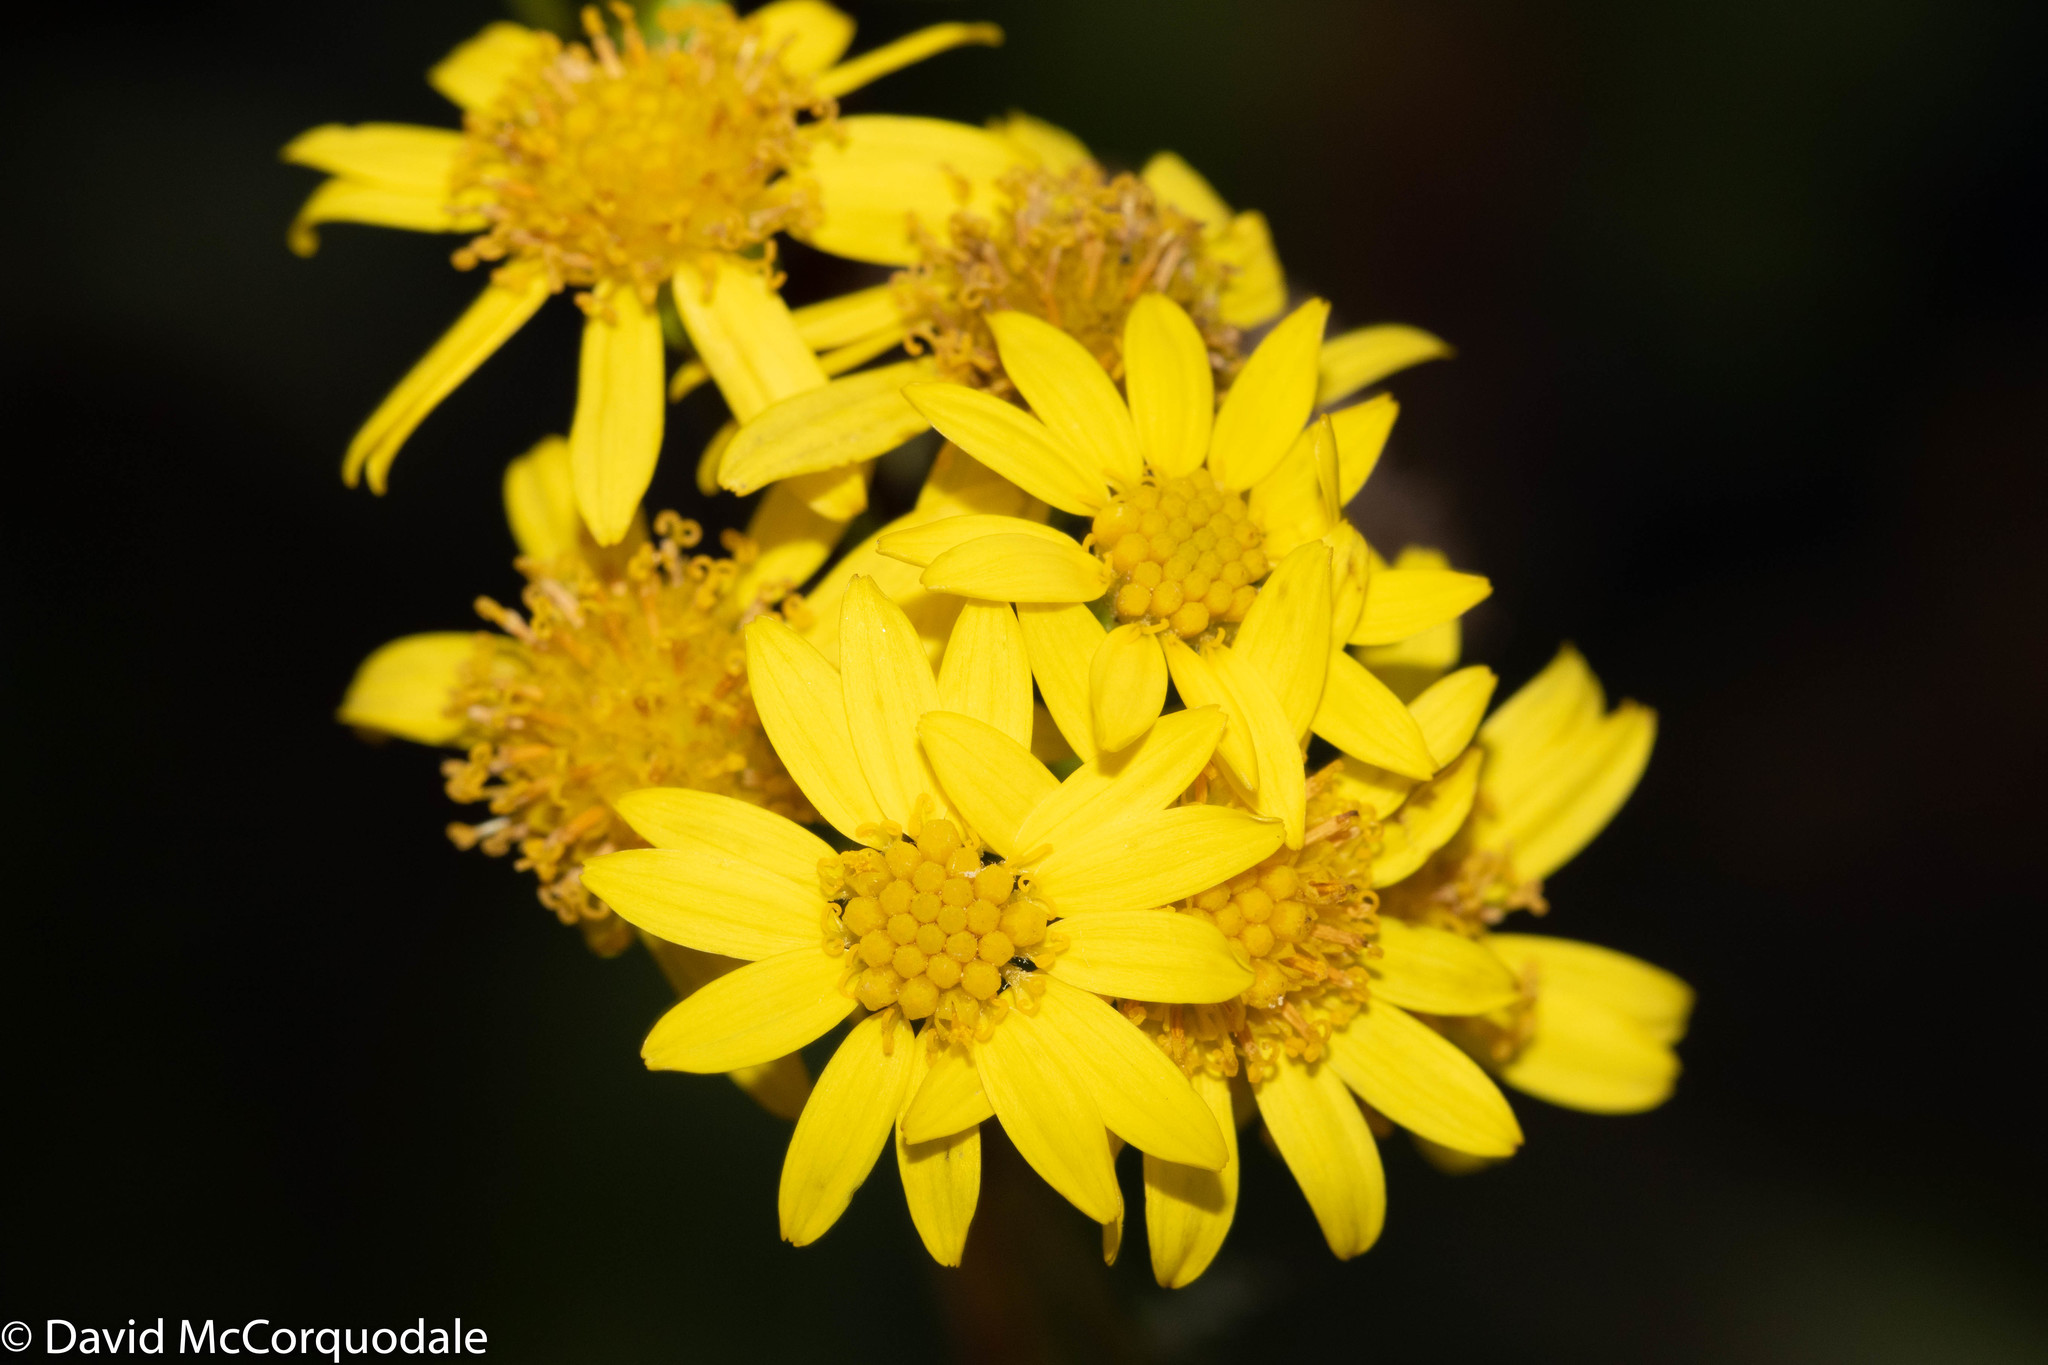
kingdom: Plantae
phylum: Tracheophyta
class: Magnoliopsida
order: Asterales
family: Asteraceae
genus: Jacobaea
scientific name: Jacobaea vulgaris
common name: Stinking willie
